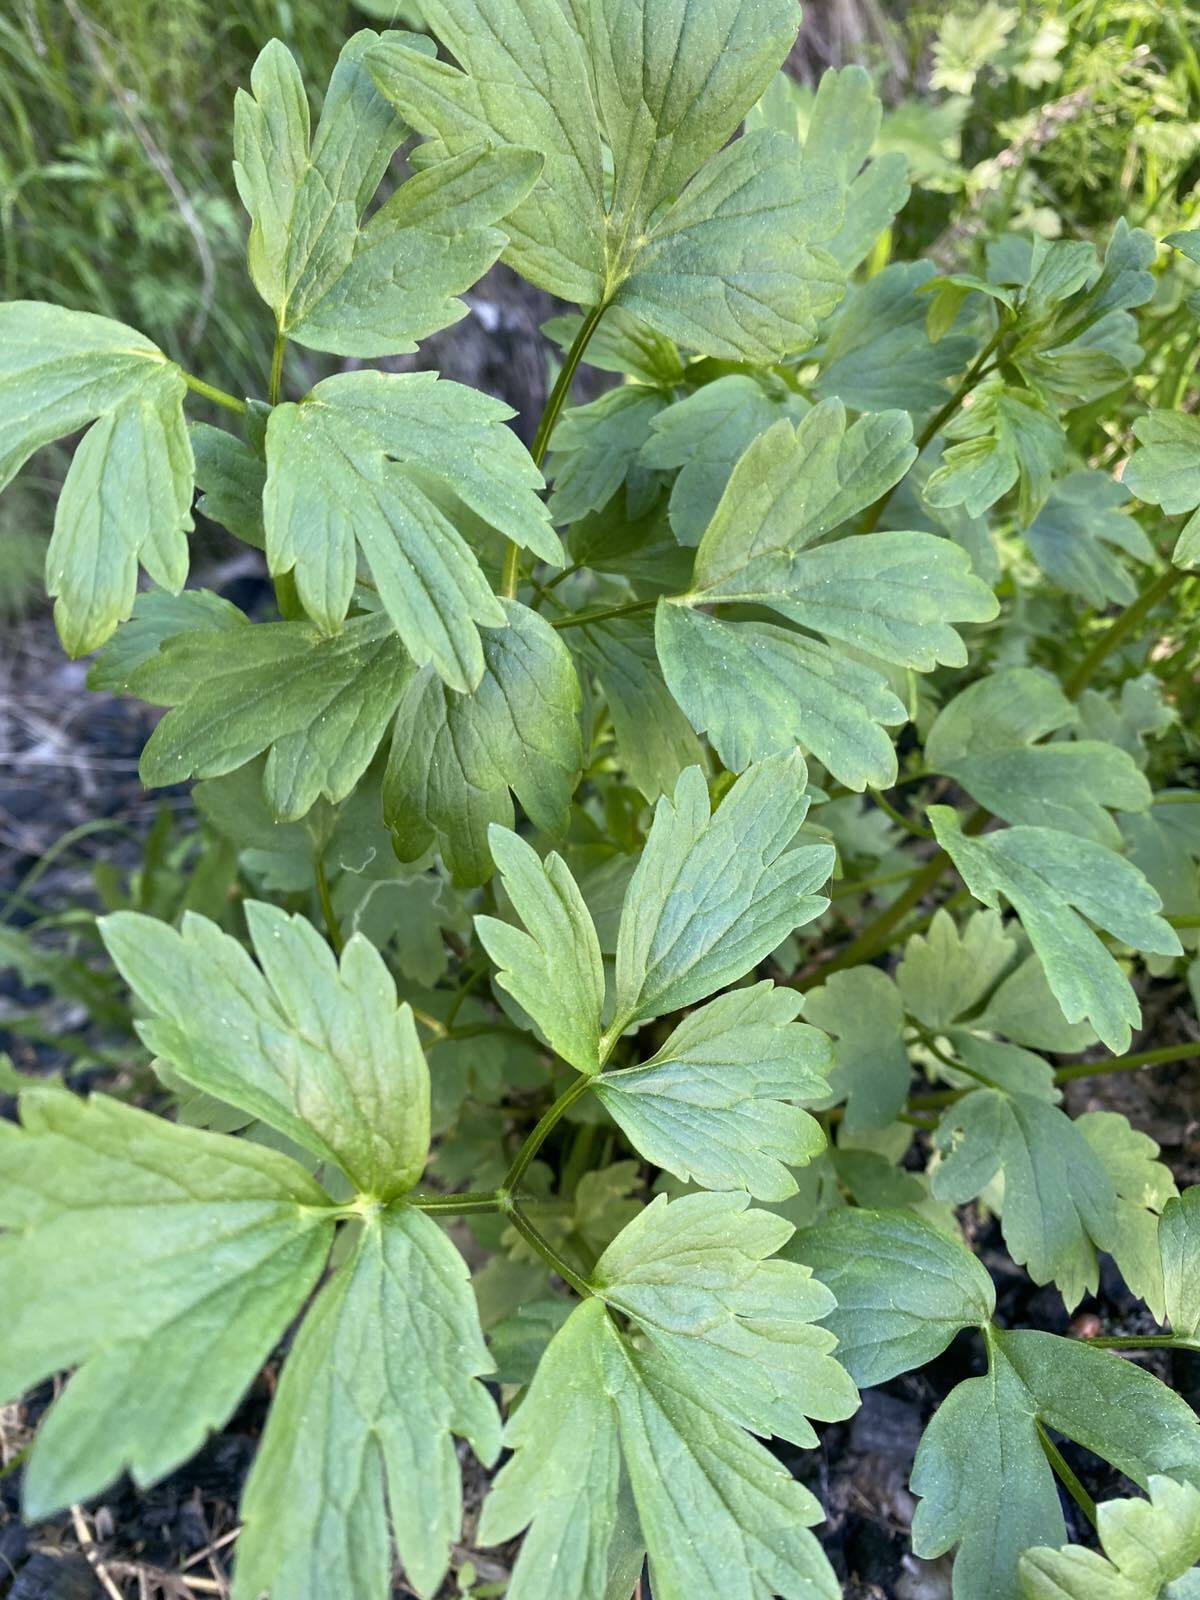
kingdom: Plantae
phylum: Tracheophyta
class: Magnoliopsida
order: Ranunculales
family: Ranunculaceae
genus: Ranunculus
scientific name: Ranunculus repens
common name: Creeping buttercup
